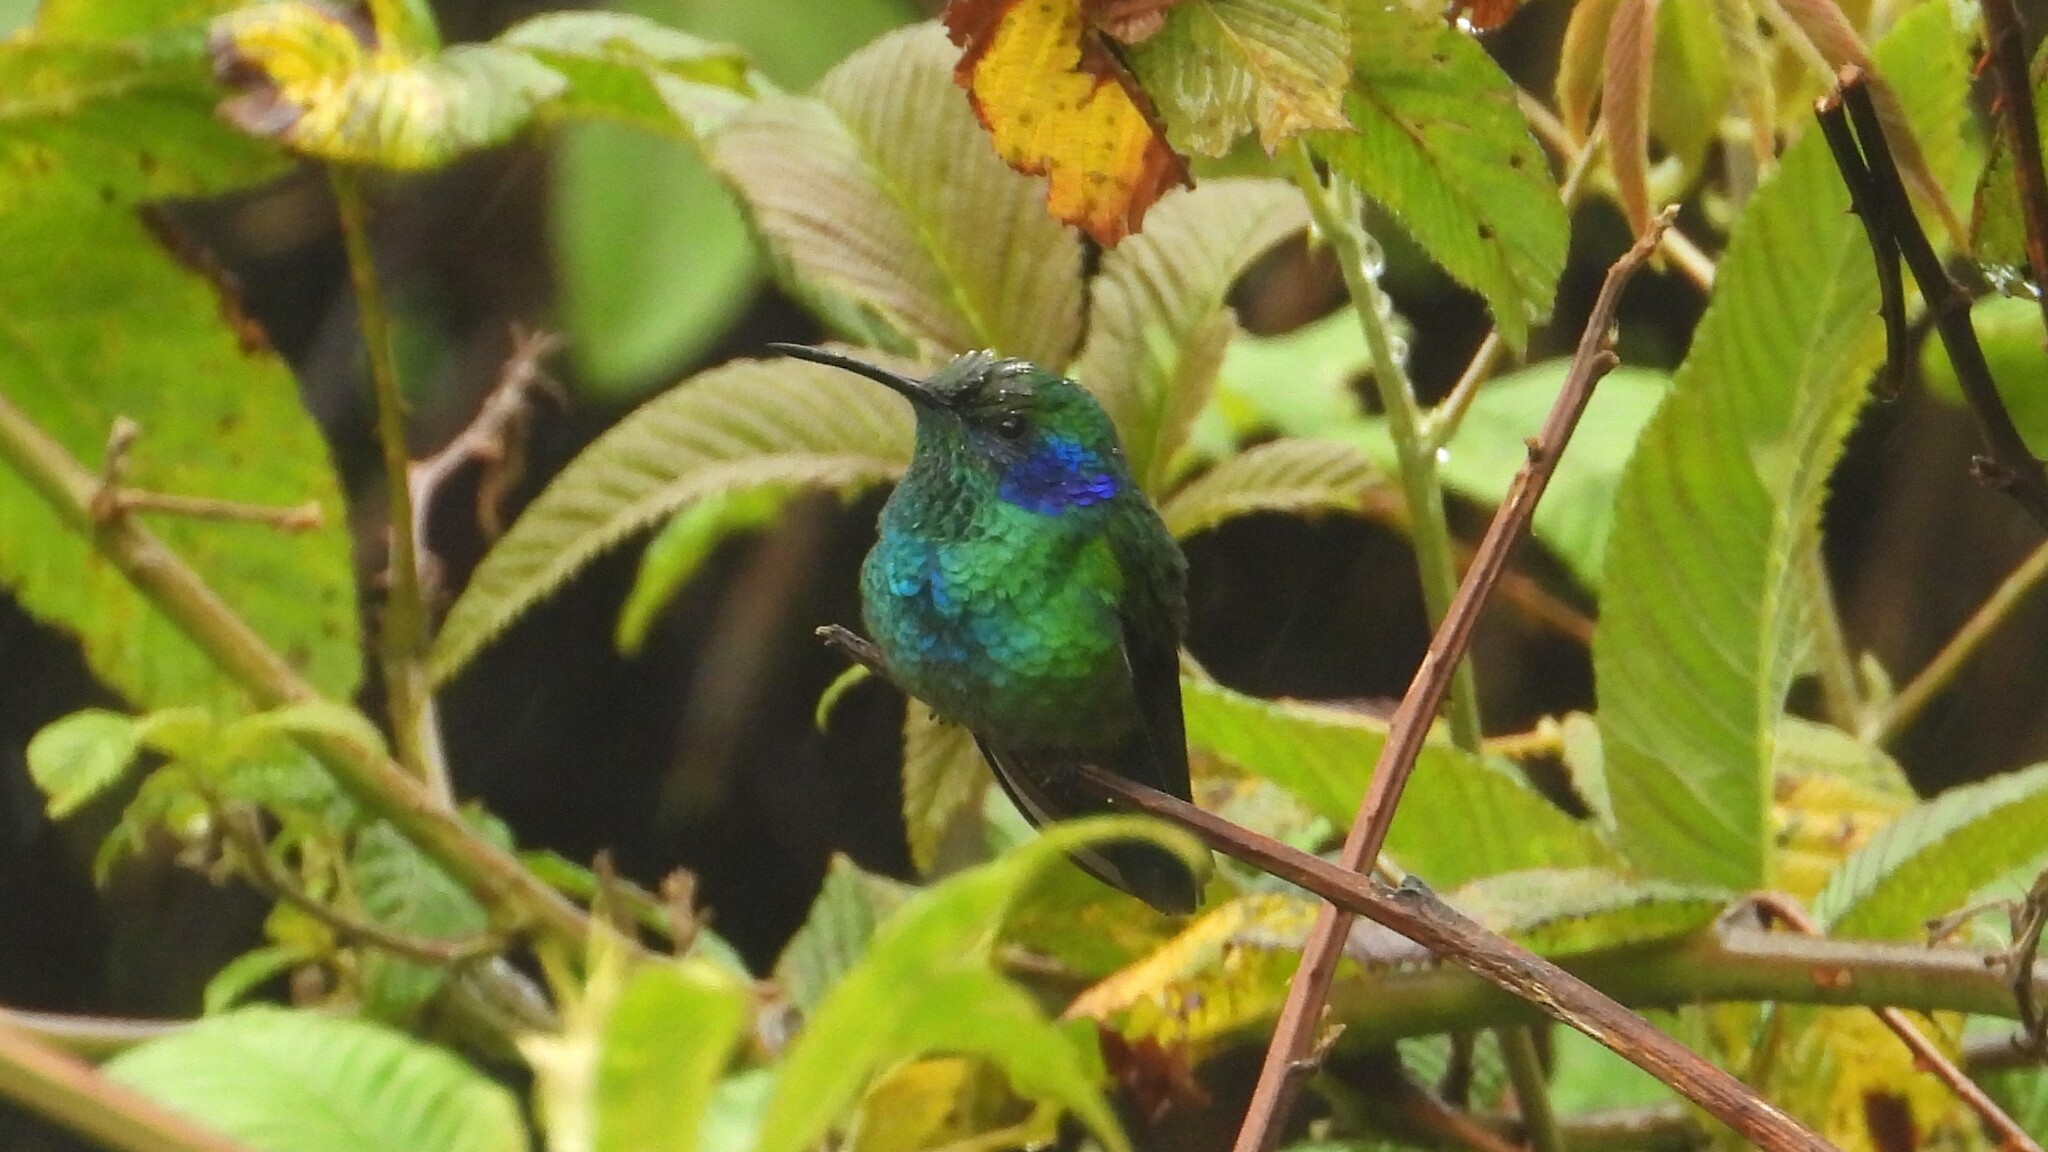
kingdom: Animalia
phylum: Chordata
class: Aves
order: Apodiformes
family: Trochilidae
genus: Colibri
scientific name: Colibri cyanotus
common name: Lesser violetear
